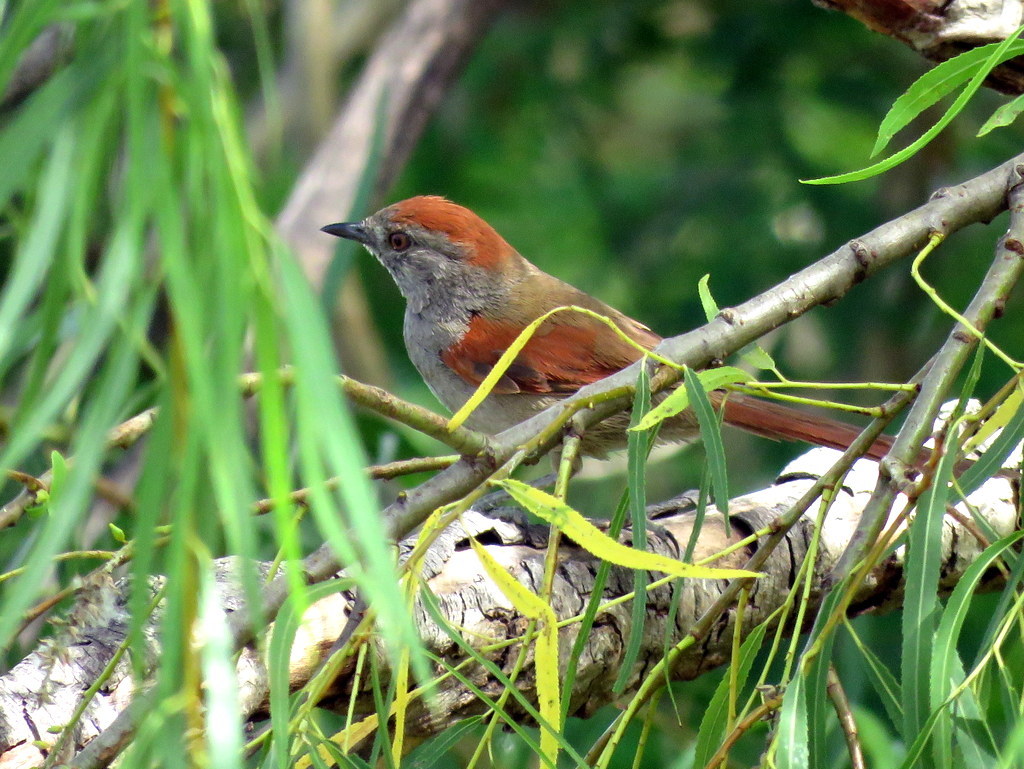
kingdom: Animalia
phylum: Chordata
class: Aves
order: Passeriformes
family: Furnariidae
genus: Synallaxis
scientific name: Synallaxis frontalis
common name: Sooty-fronted spinetail
